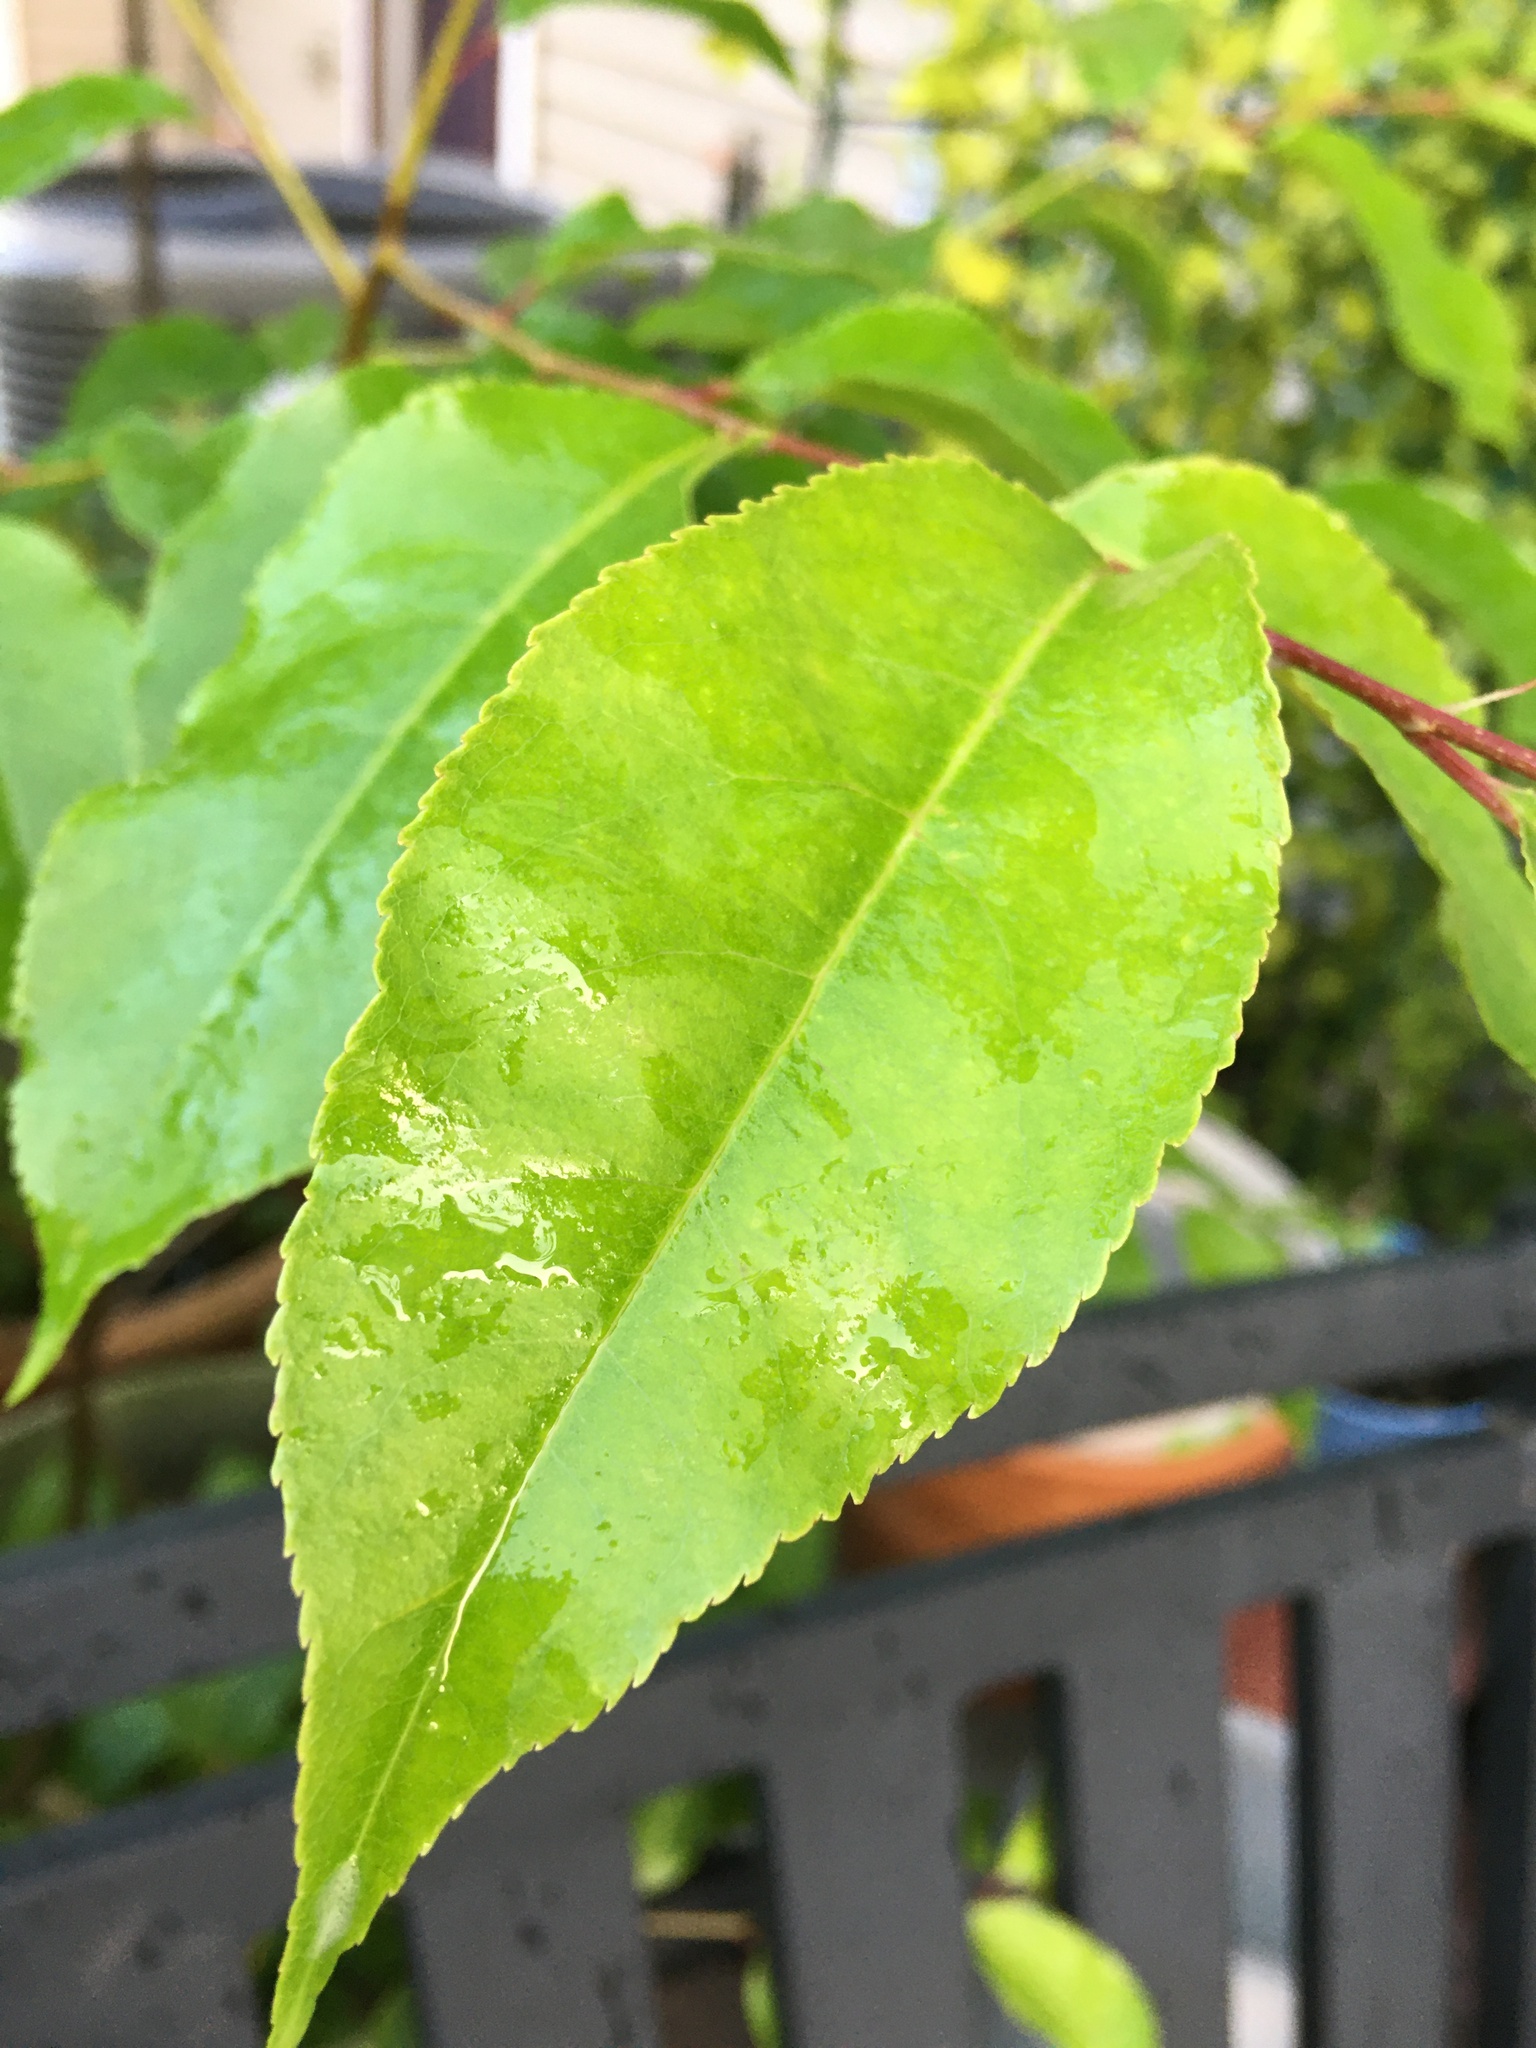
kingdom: Plantae
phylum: Tracheophyta
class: Magnoliopsida
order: Rosales
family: Rosaceae
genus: Prunus
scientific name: Prunus serotina
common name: Black cherry
